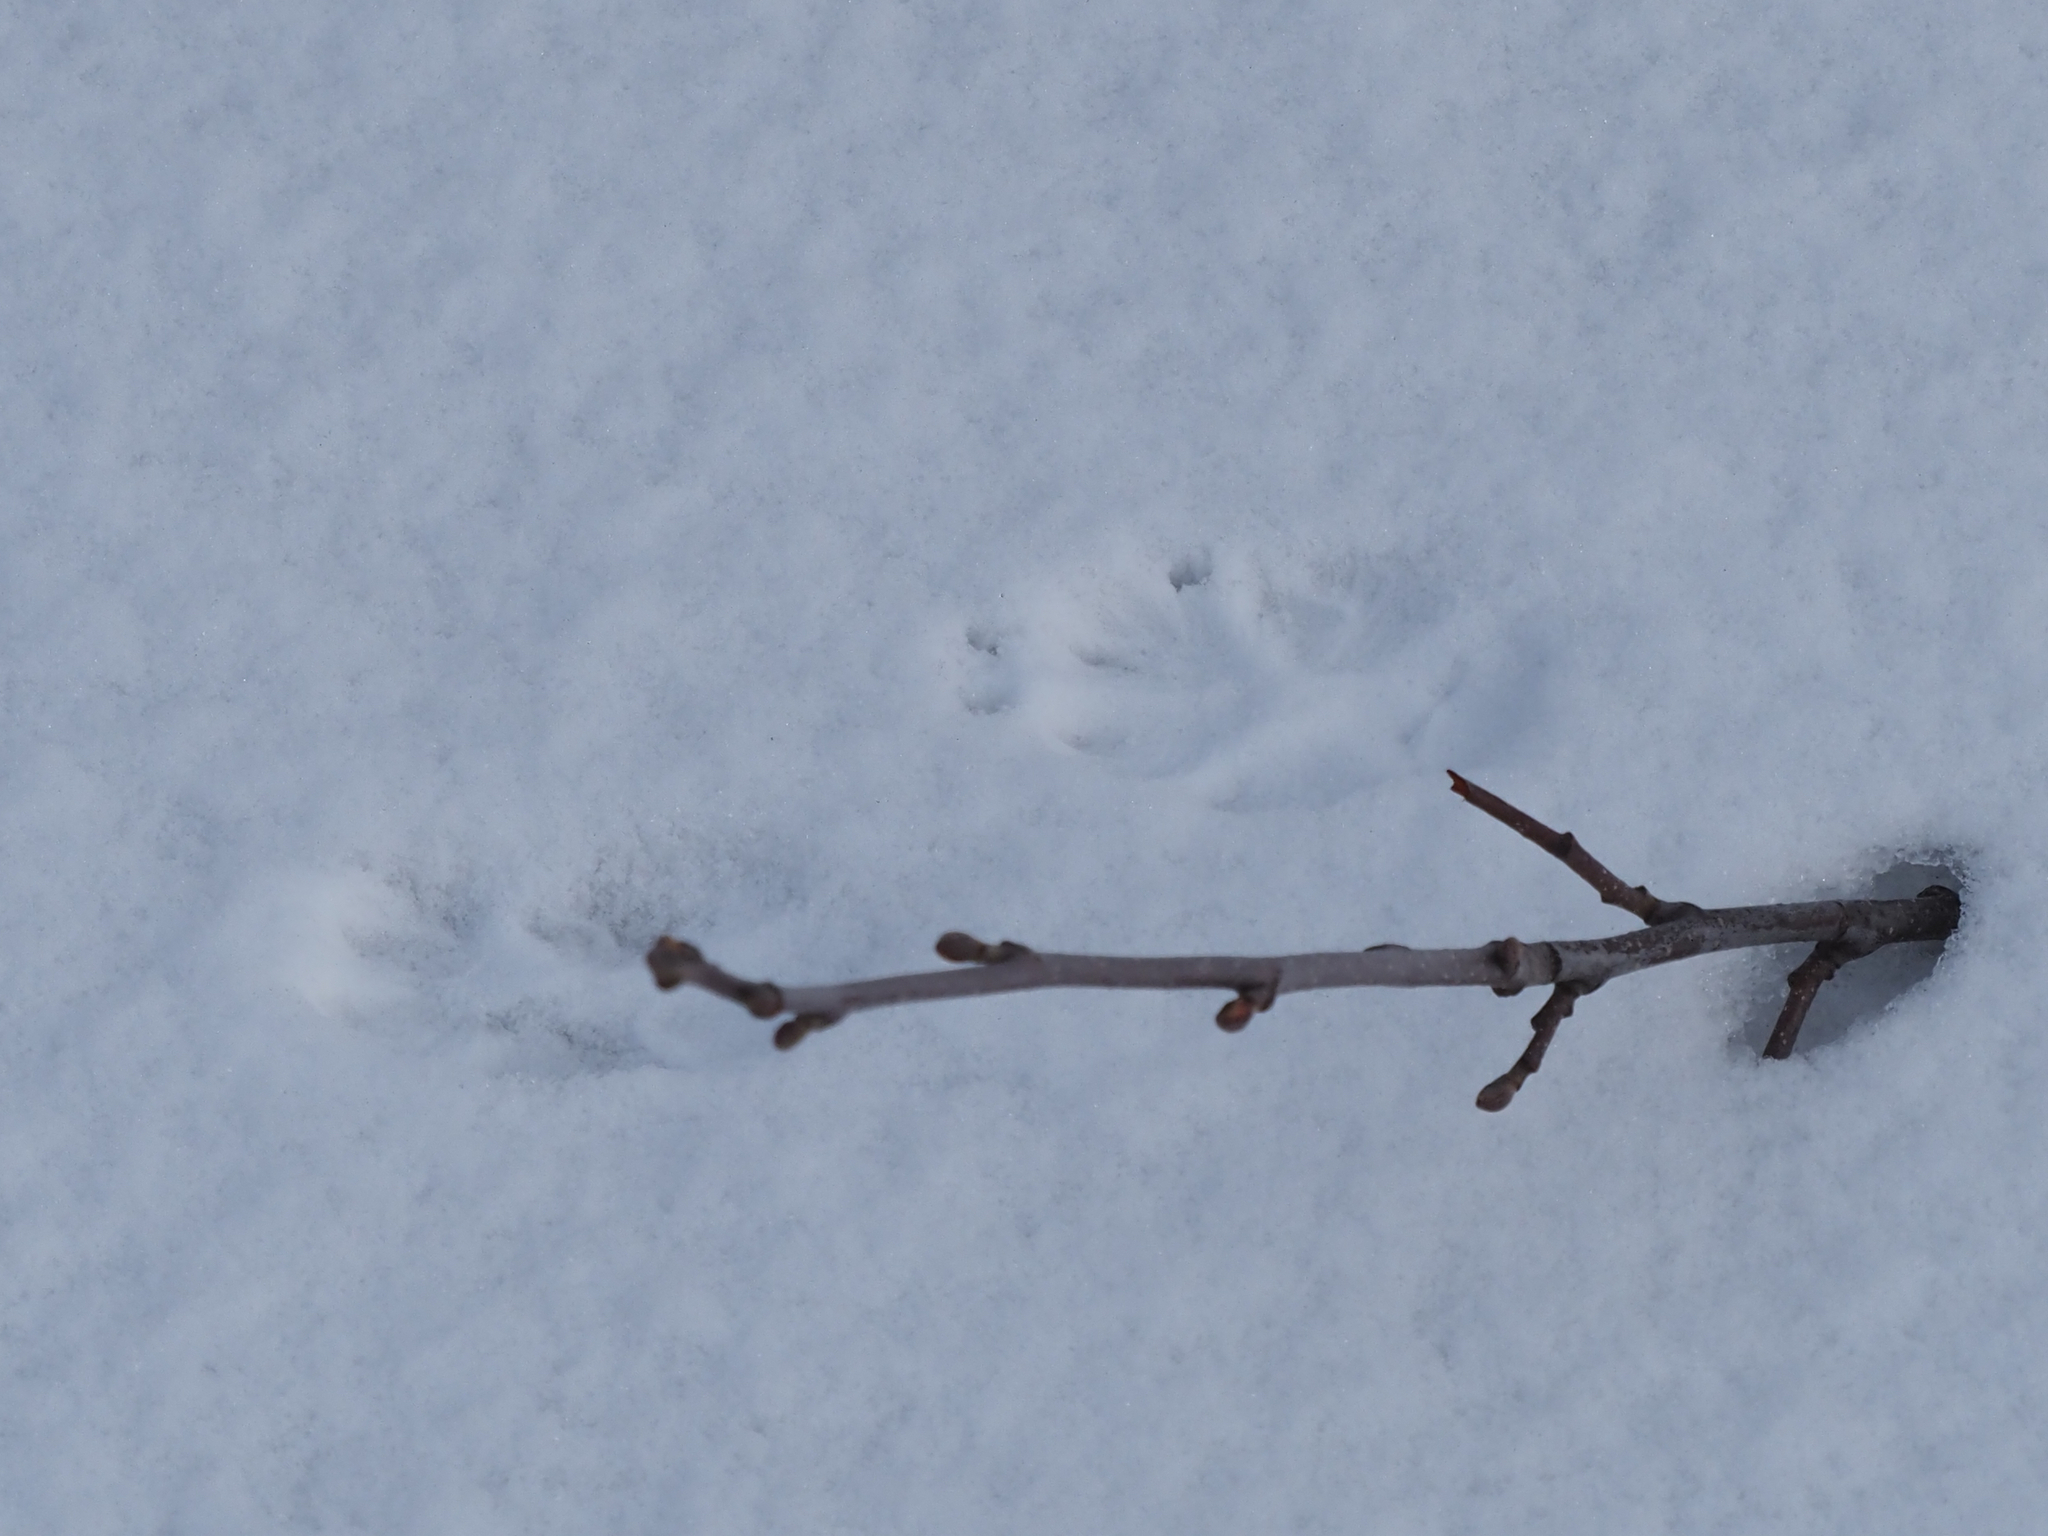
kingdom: Animalia
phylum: Chordata
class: Mammalia
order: Carnivora
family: Canidae
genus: Vulpes
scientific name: Vulpes vulpes
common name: Red fox
